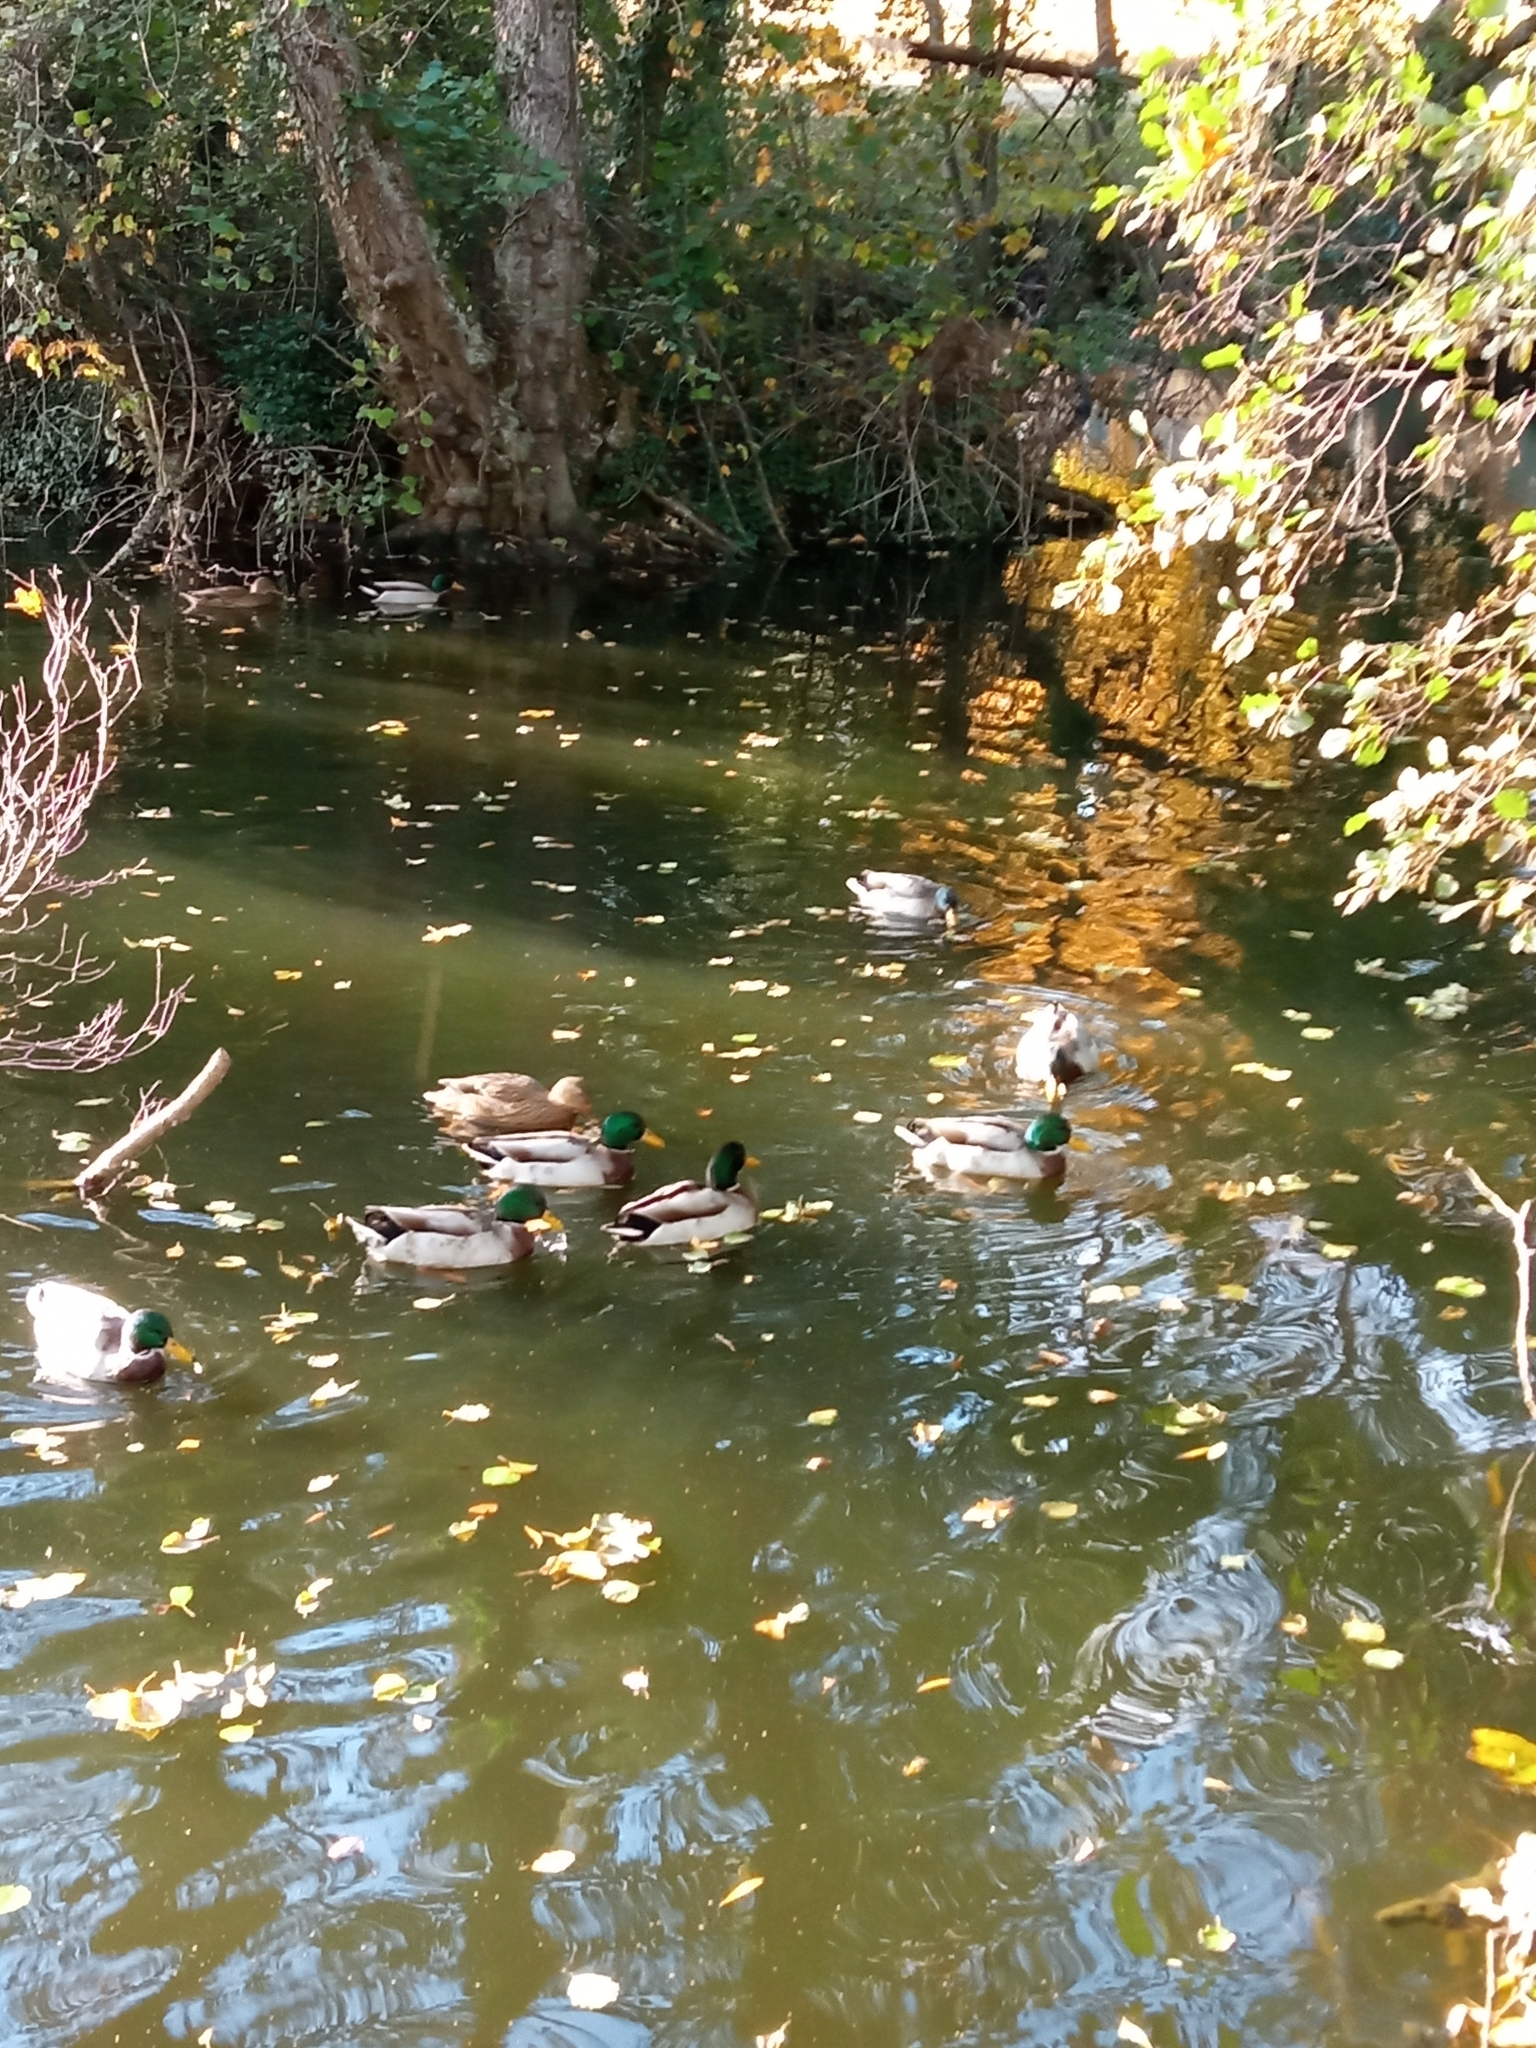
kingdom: Animalia
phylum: Chordata
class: Aves
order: Anseriformes
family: Anatidae
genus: Anas
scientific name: Anas platyrhynchos
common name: Mallard
